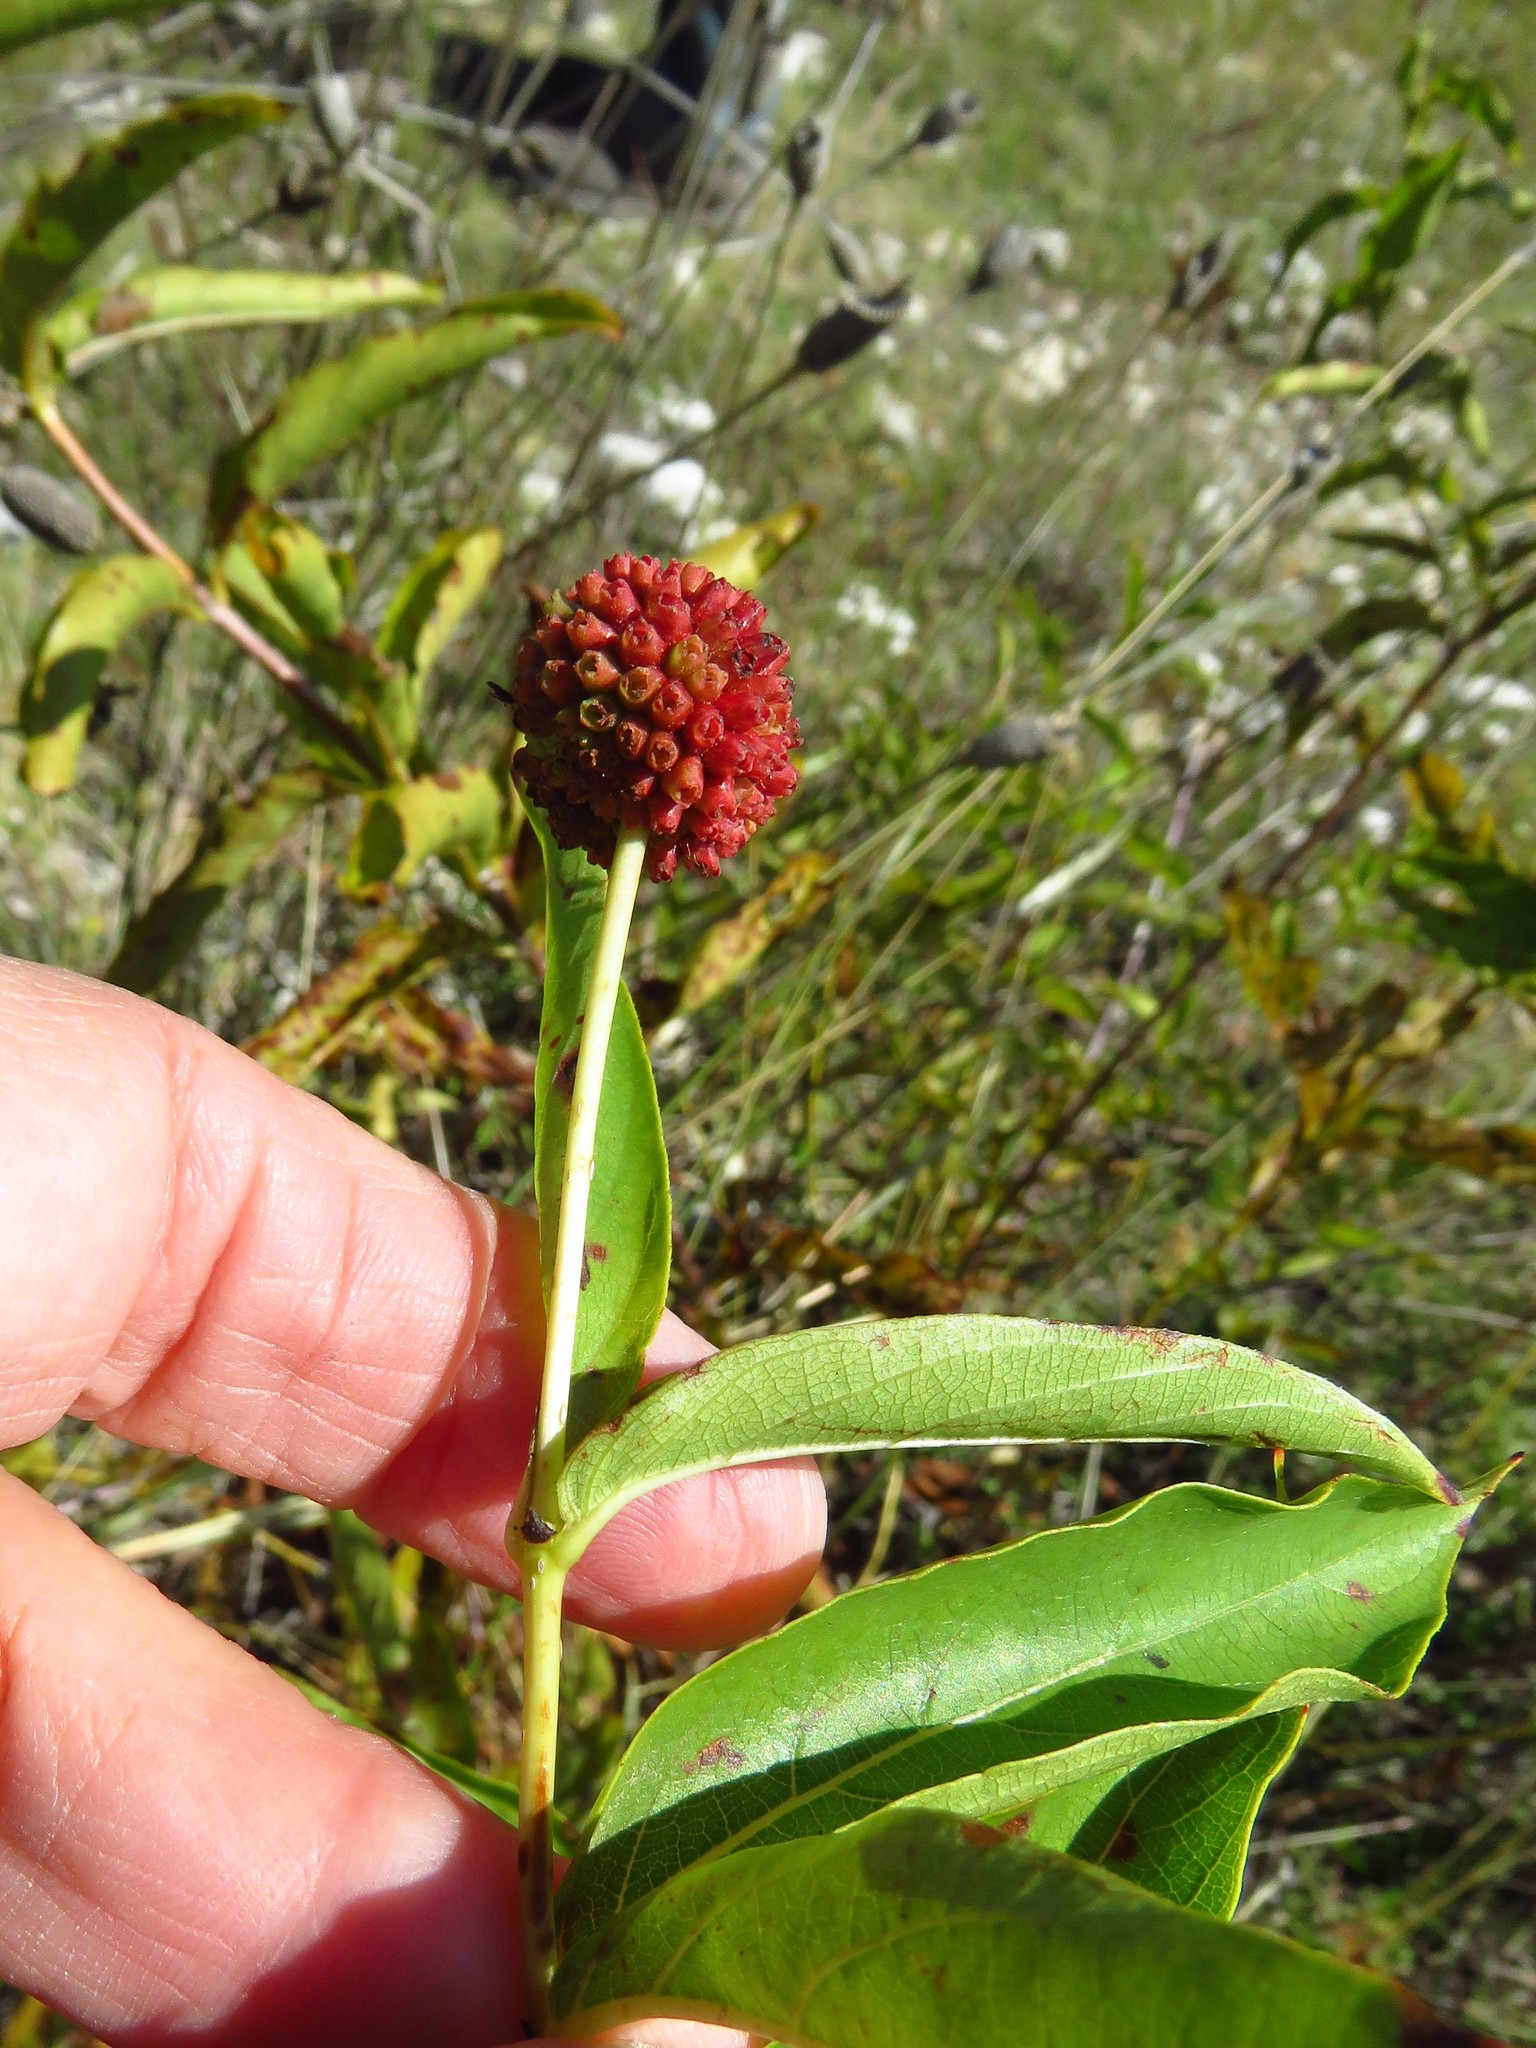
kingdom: Plantae
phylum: Tracheophyta
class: Magnoliopsida
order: Gentianales
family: Rubiaceae
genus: Cephalanthus
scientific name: Cephalanthus occidentalis
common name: Button-willow
